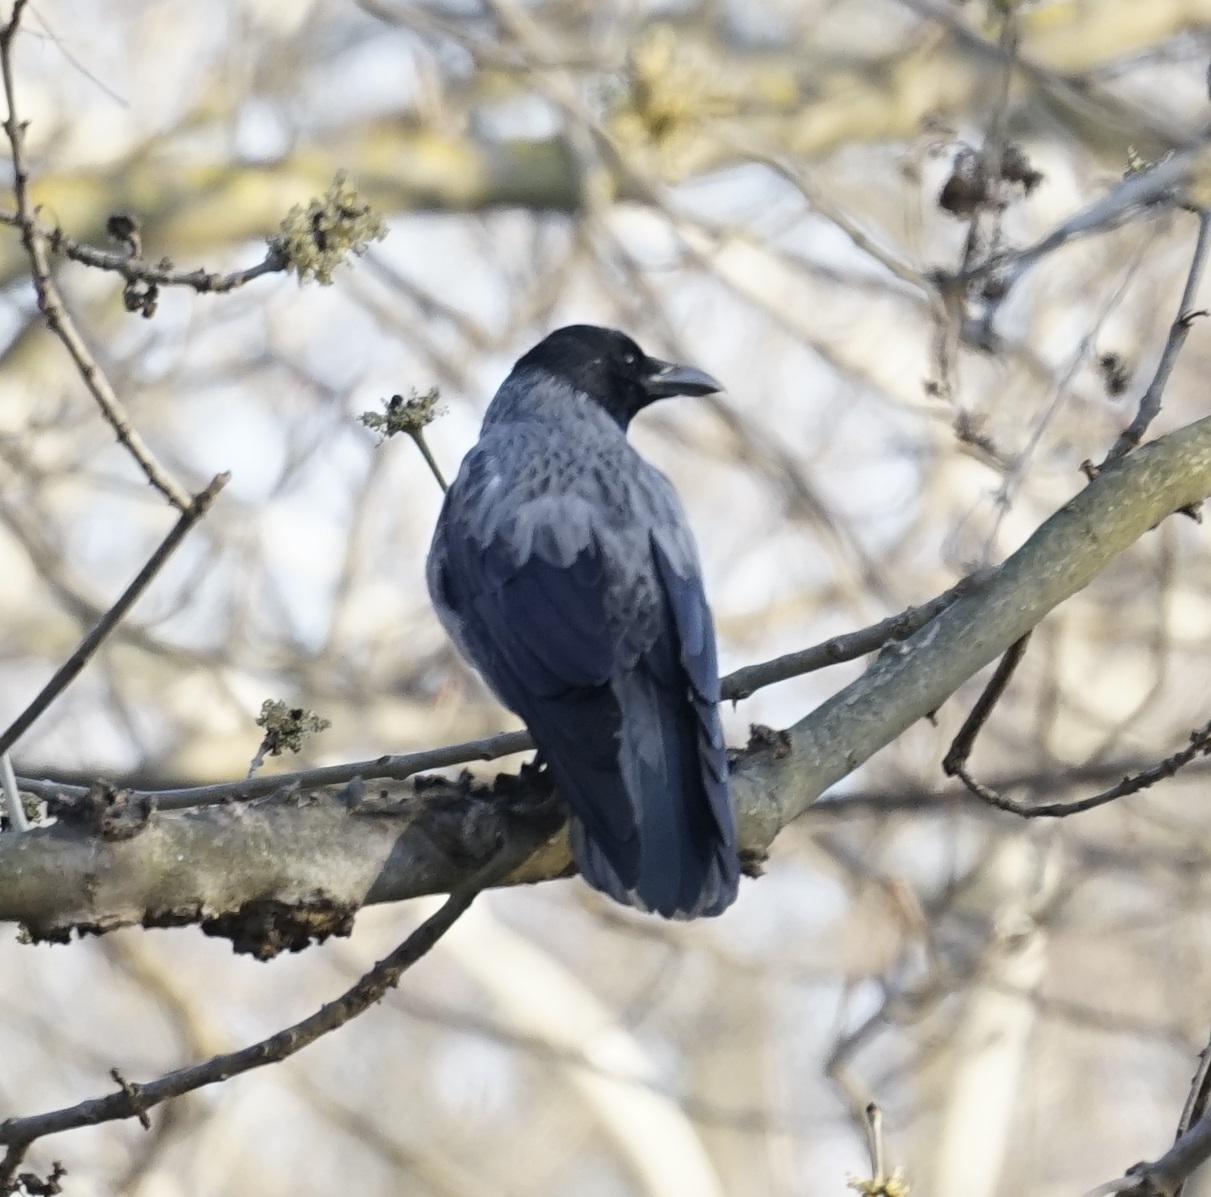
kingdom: Animalia
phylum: Chordata
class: Aves
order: Passeriformes
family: Corvidae
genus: Corvus
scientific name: Corvus
